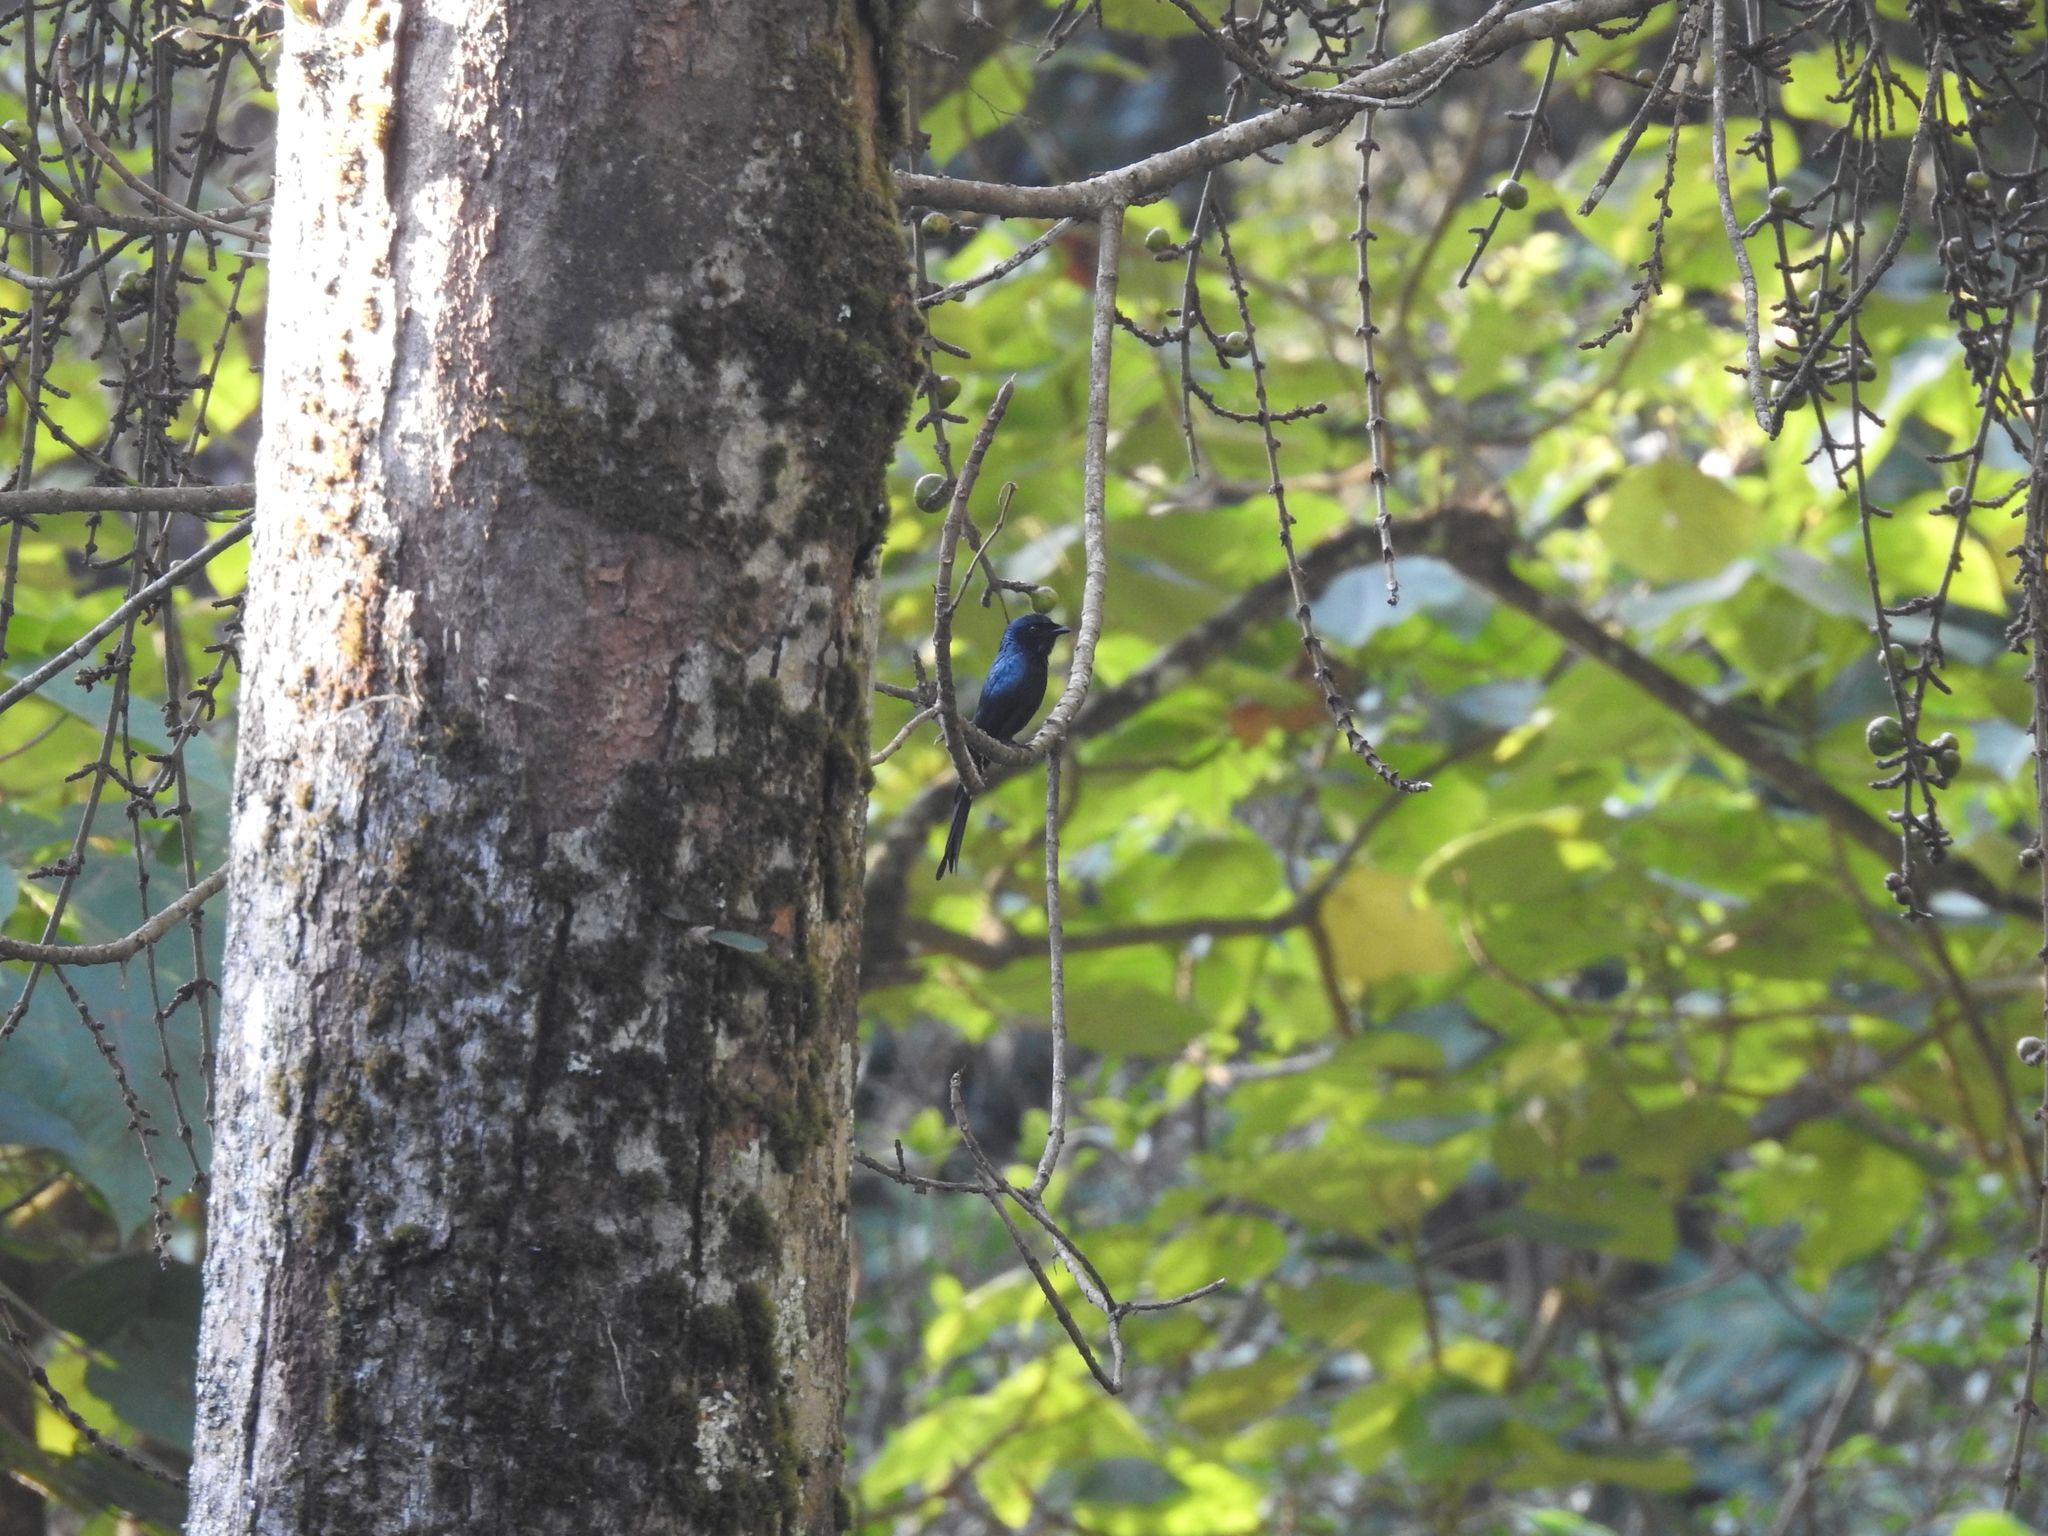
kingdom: Animalia
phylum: Chordata
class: Aves
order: Passeriformes
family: Dicruridae
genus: Dicrurus
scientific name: Dicrurus aeneus
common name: Bronzed drongo
